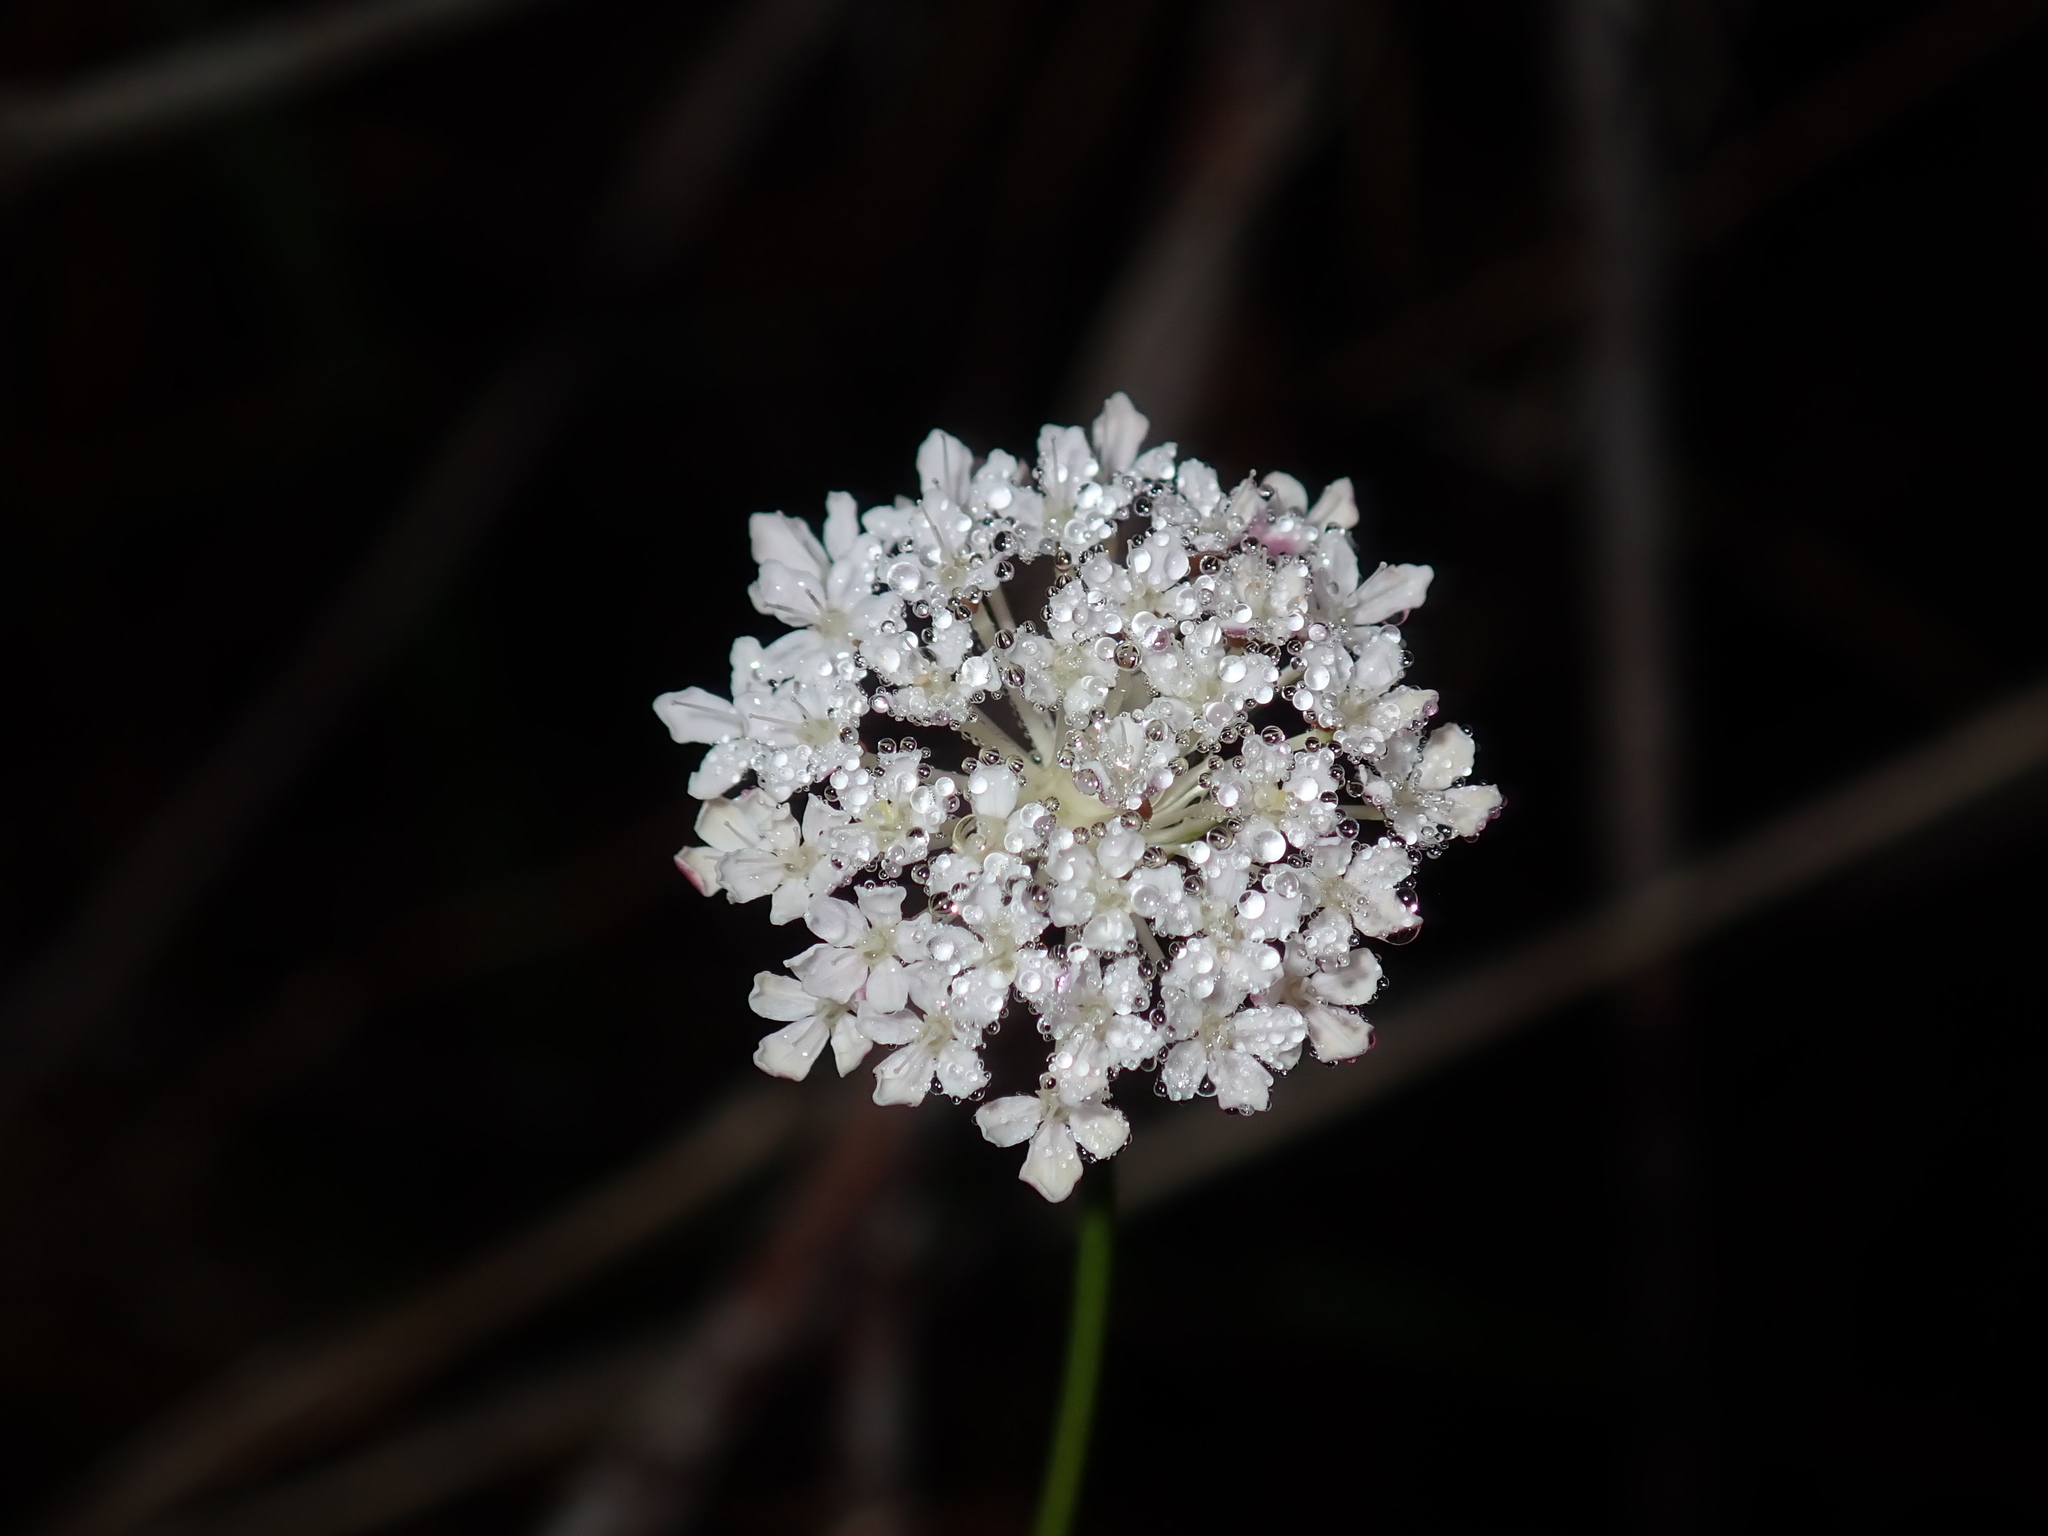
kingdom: Plantae
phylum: Tracheophyta
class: Magnoliopsida
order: Apiales
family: Araliaceae
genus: Trachymene
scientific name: Trachymene incisa
